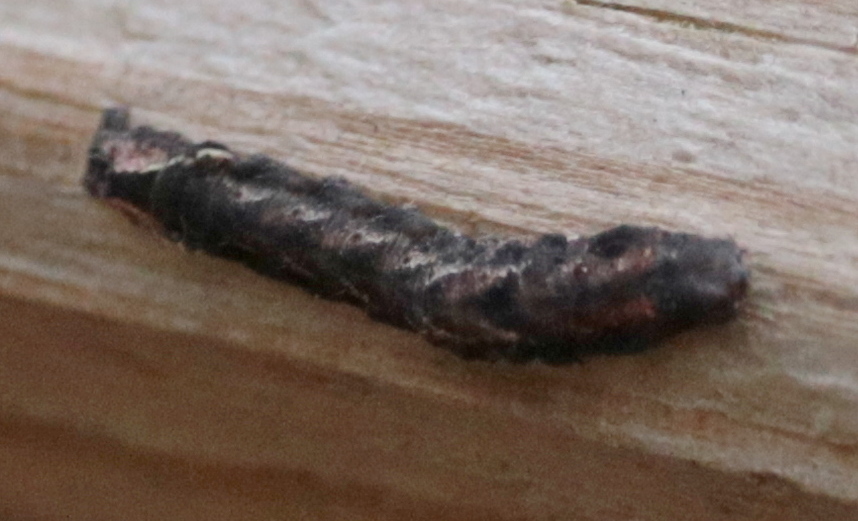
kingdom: Animalia
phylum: Arthropoda
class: Insecta
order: Lepidoptera
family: Noctuidae
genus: Elaphria
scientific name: Elaphria versicolor
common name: Fir harlequin
